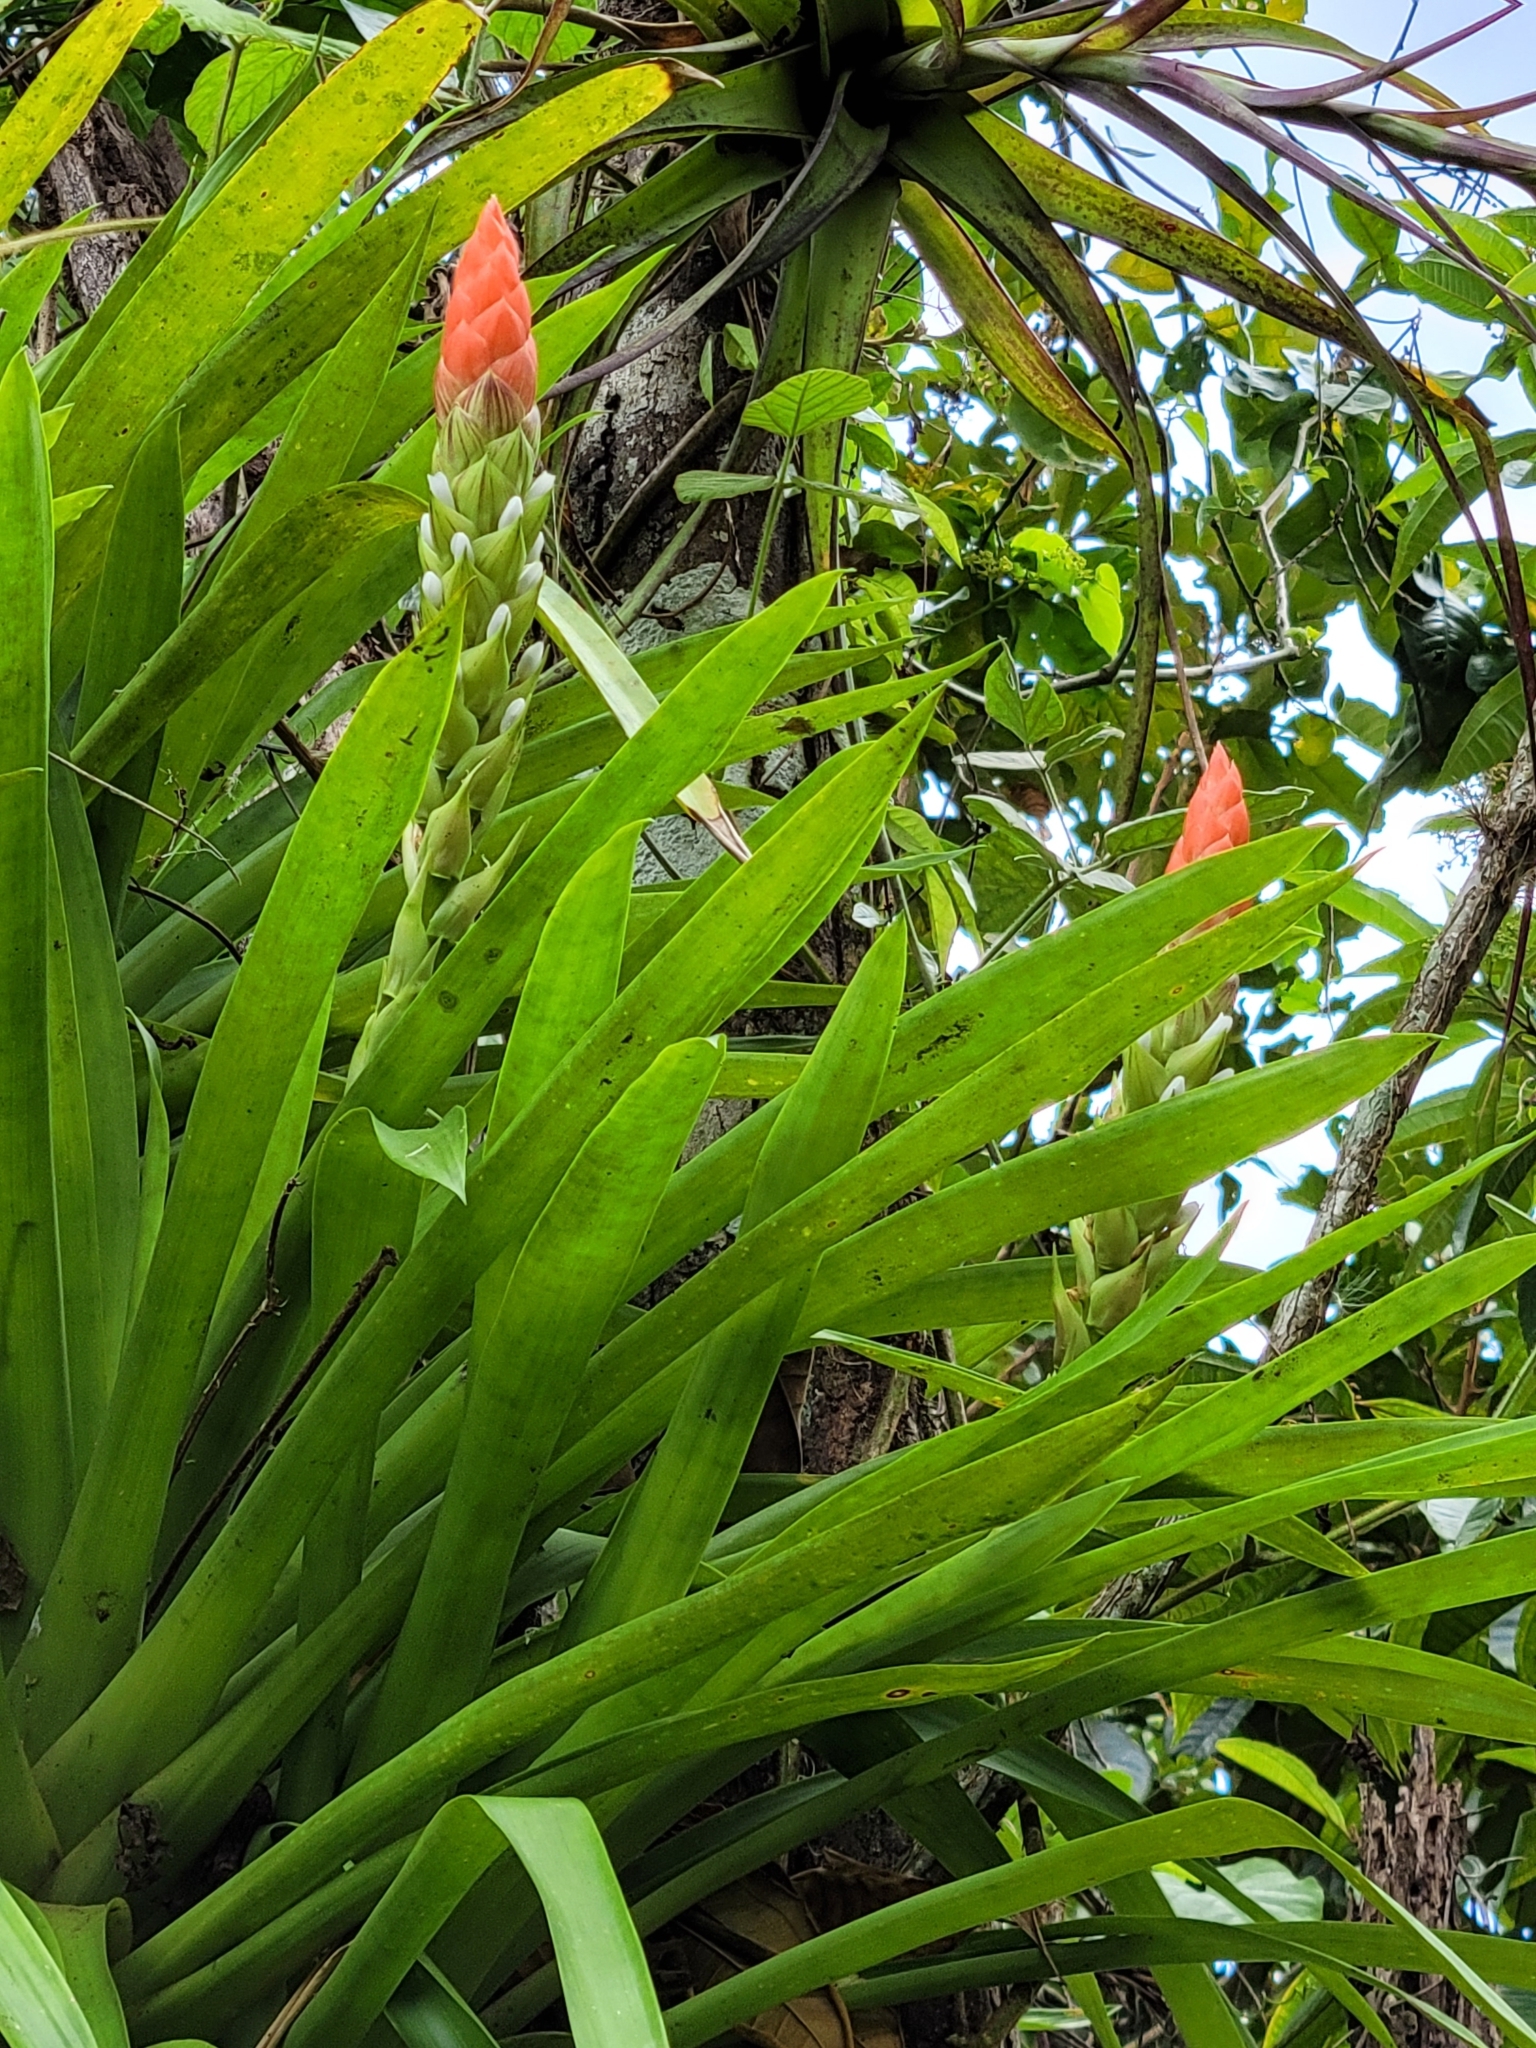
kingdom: Plantae
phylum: Tracheophyta
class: Liliopsida
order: Poales
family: Bromeliaceae
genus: Guzmania
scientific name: Guzmania monostachia
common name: West indian tufted airplant
